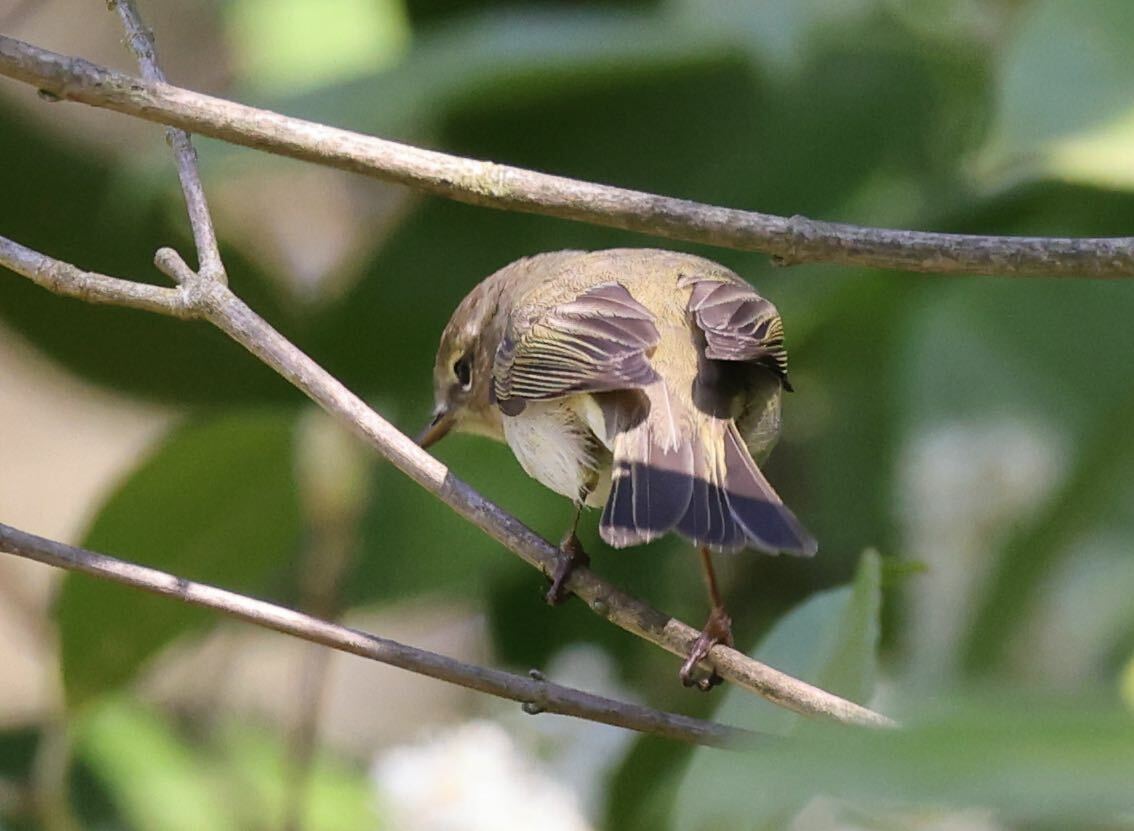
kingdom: Animalia
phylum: Chordata
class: Aves
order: Passeriformes
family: Phylloscopidae
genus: Phylloscopus
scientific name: Phylloscopus collybita
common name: Common chiffchaff
